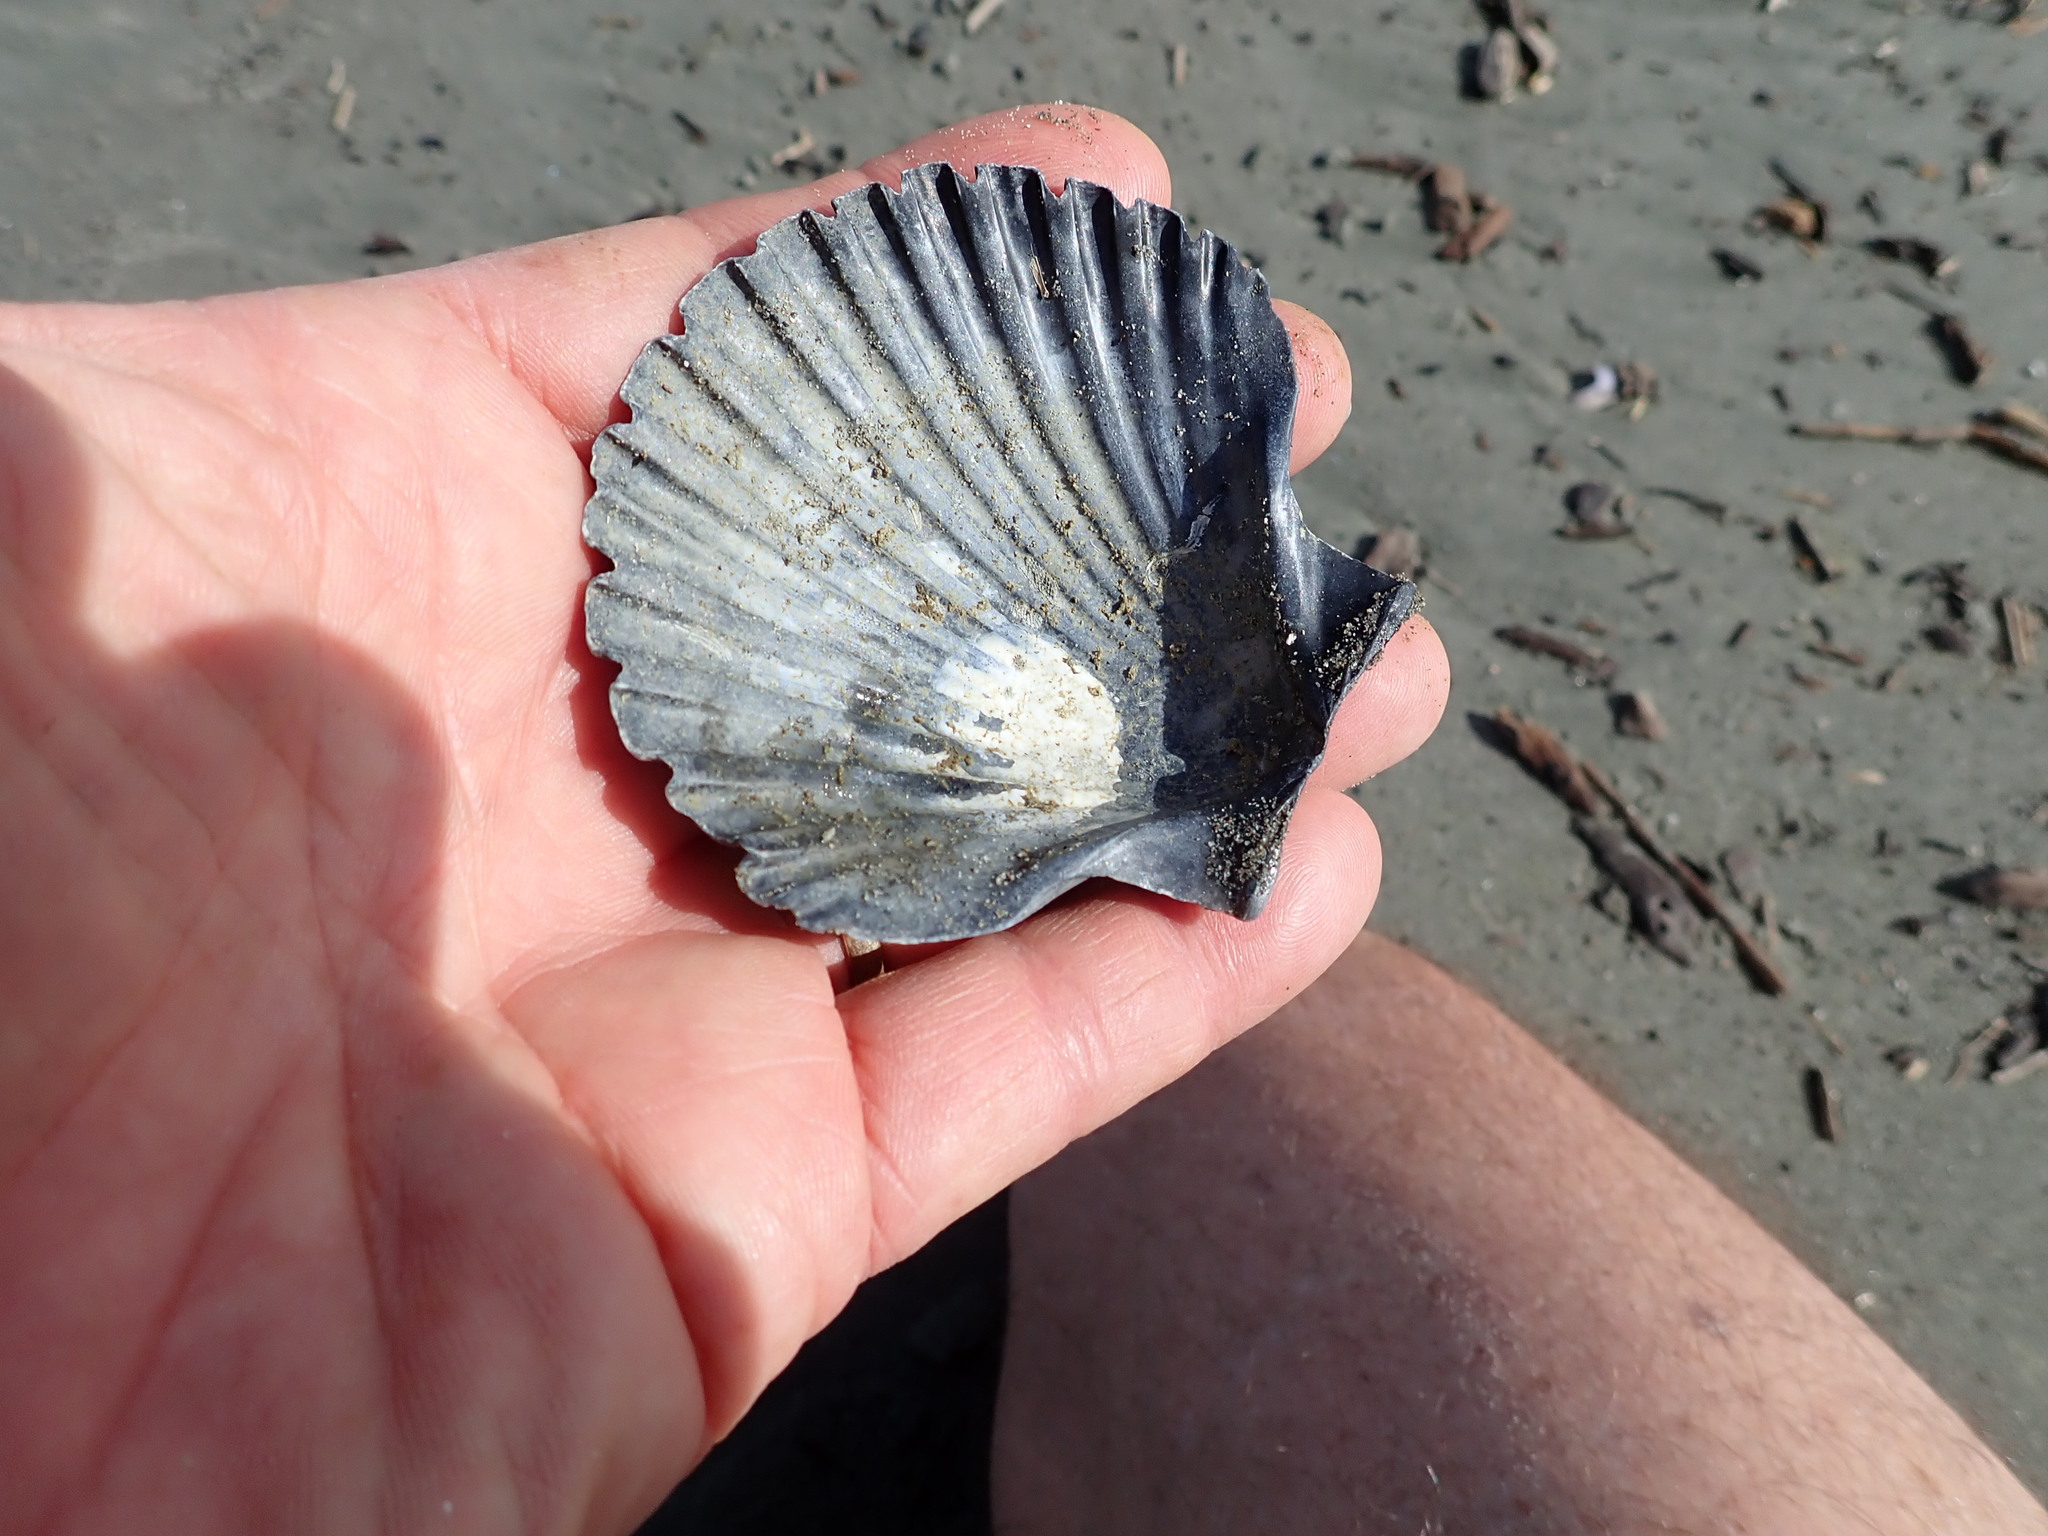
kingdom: Animalia
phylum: Mollusca
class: Bivalvia
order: Pectinida
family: Pectinidae
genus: Pecten
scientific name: Pecten novaezelandiae
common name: New zealand scallop
